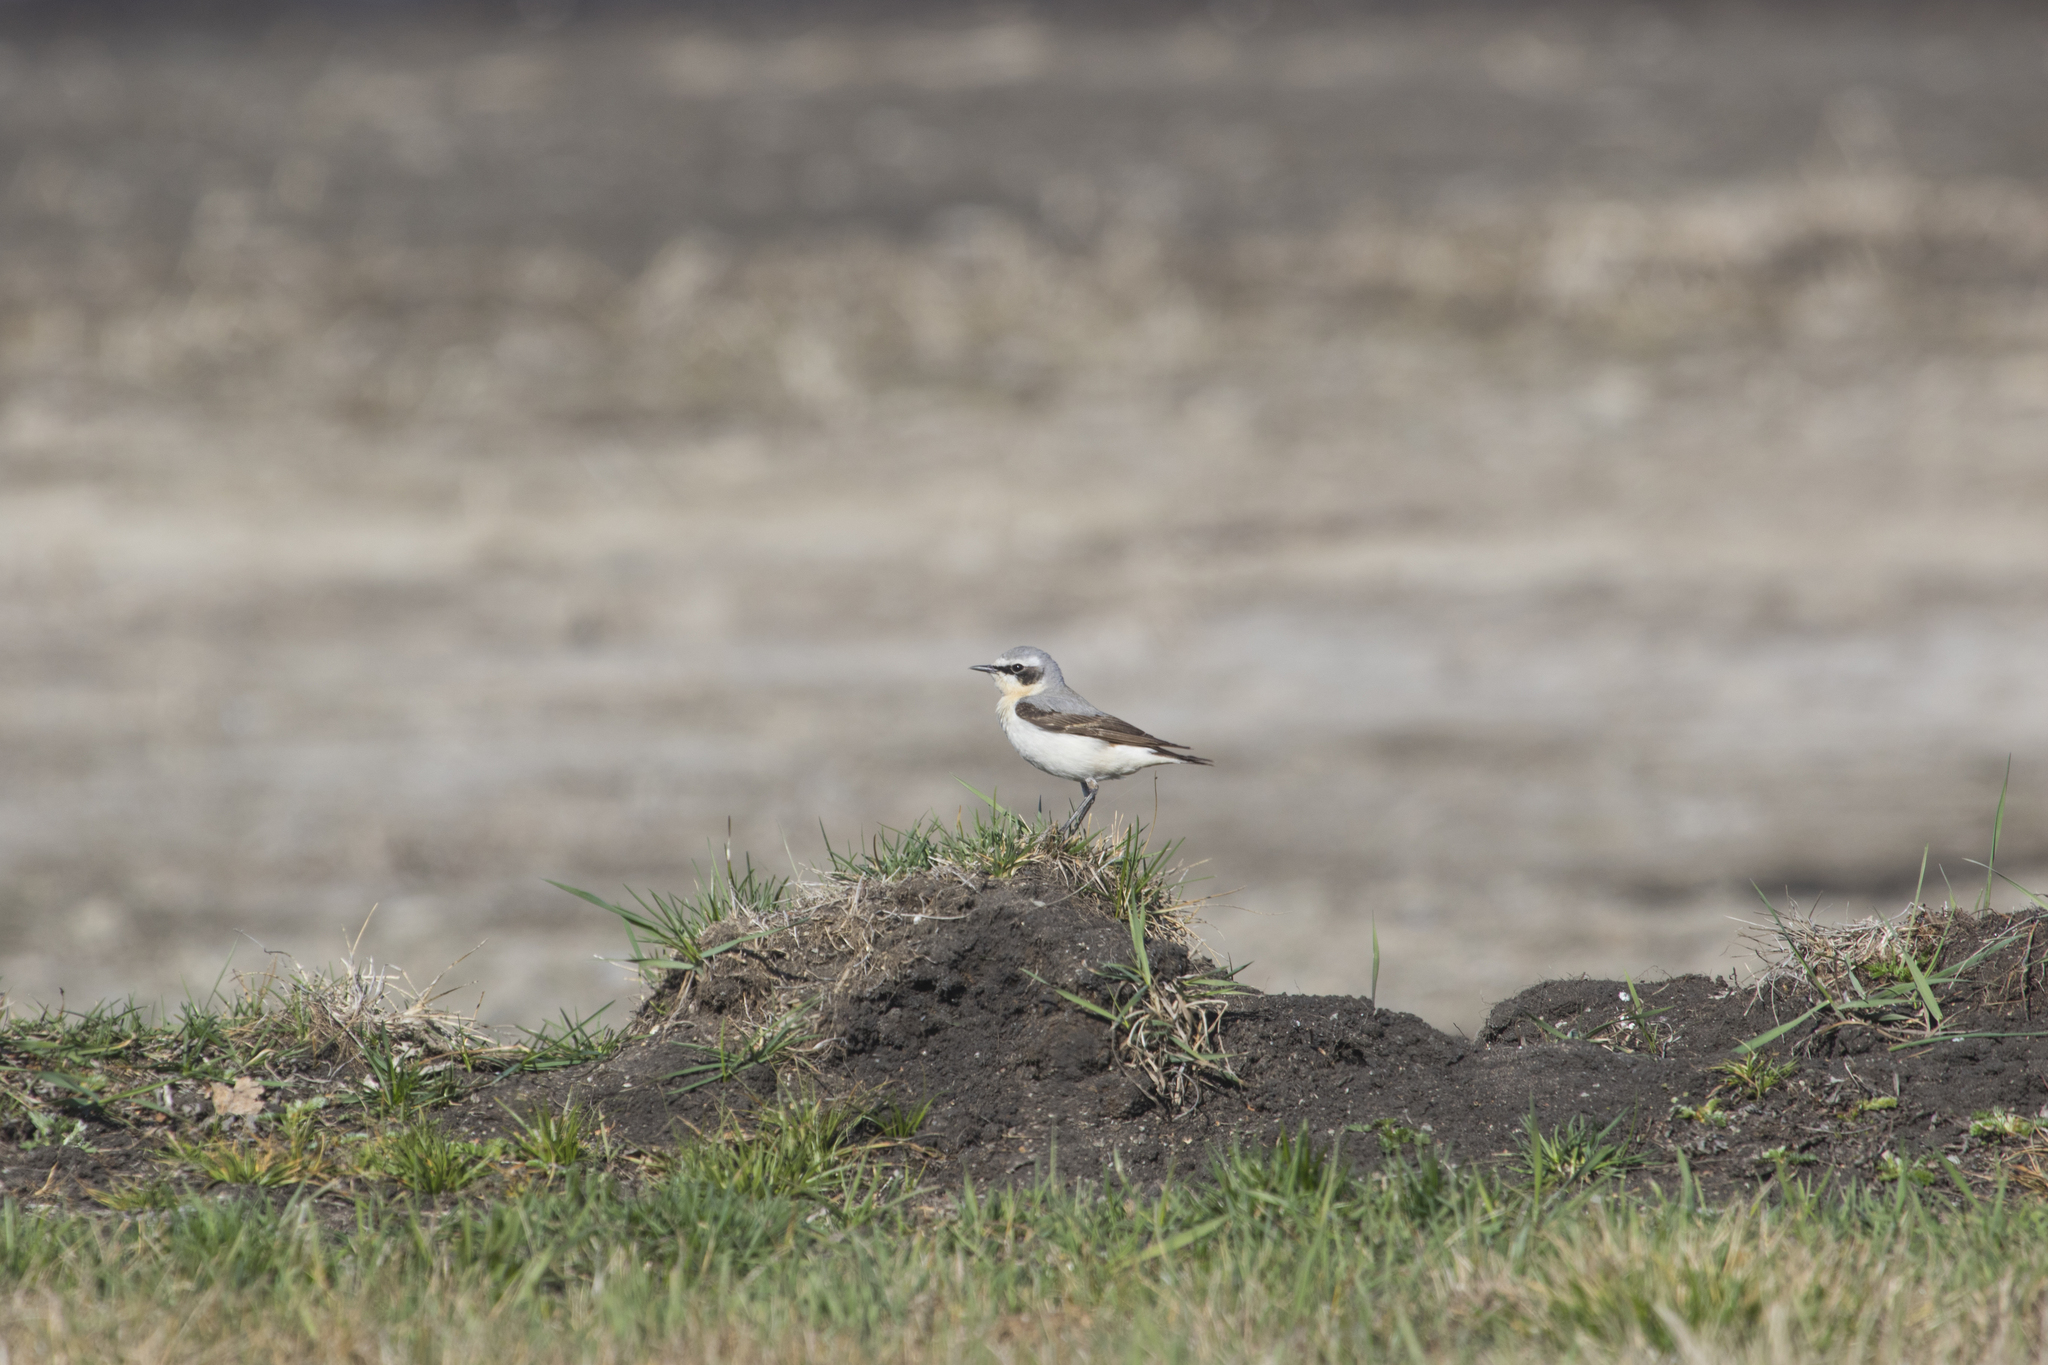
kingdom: Animalia
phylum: Chordata
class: Aves
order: Passeriformes
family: Muscicapidae
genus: Oenanthe
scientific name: Oenanthe oenanthe
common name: Northern wheatear
